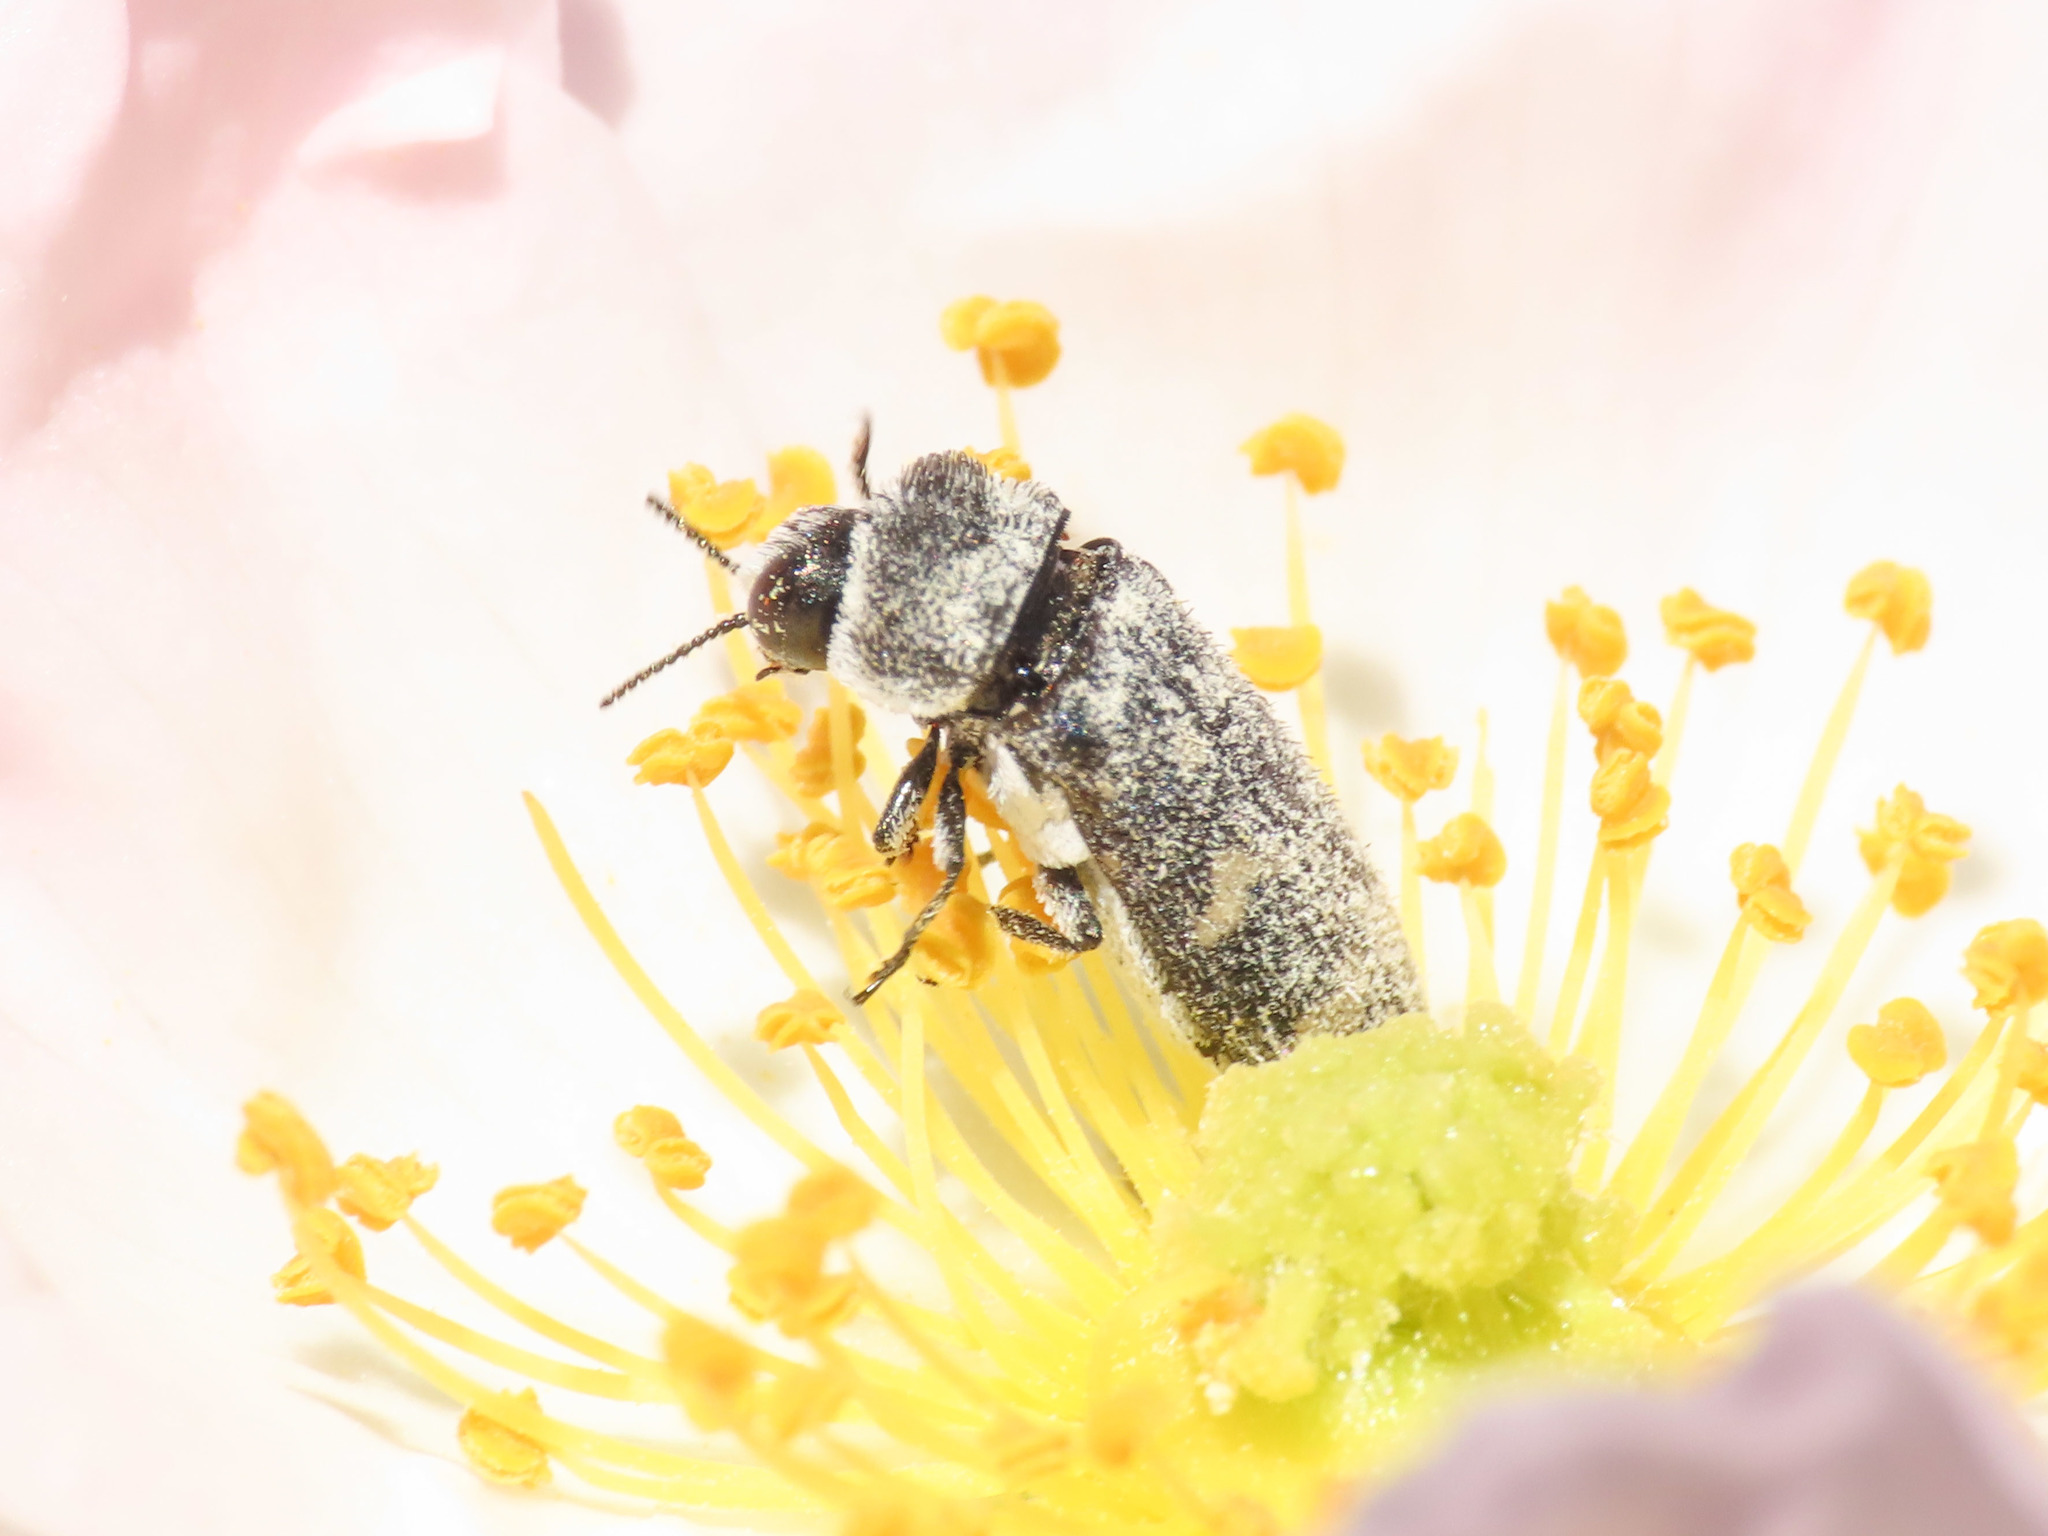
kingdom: Animalia
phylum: Arthropoda
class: Insecta
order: Coleoptera
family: Buprestidae
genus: Acmaeoderella
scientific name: Acmaeoderella flavofasciata
